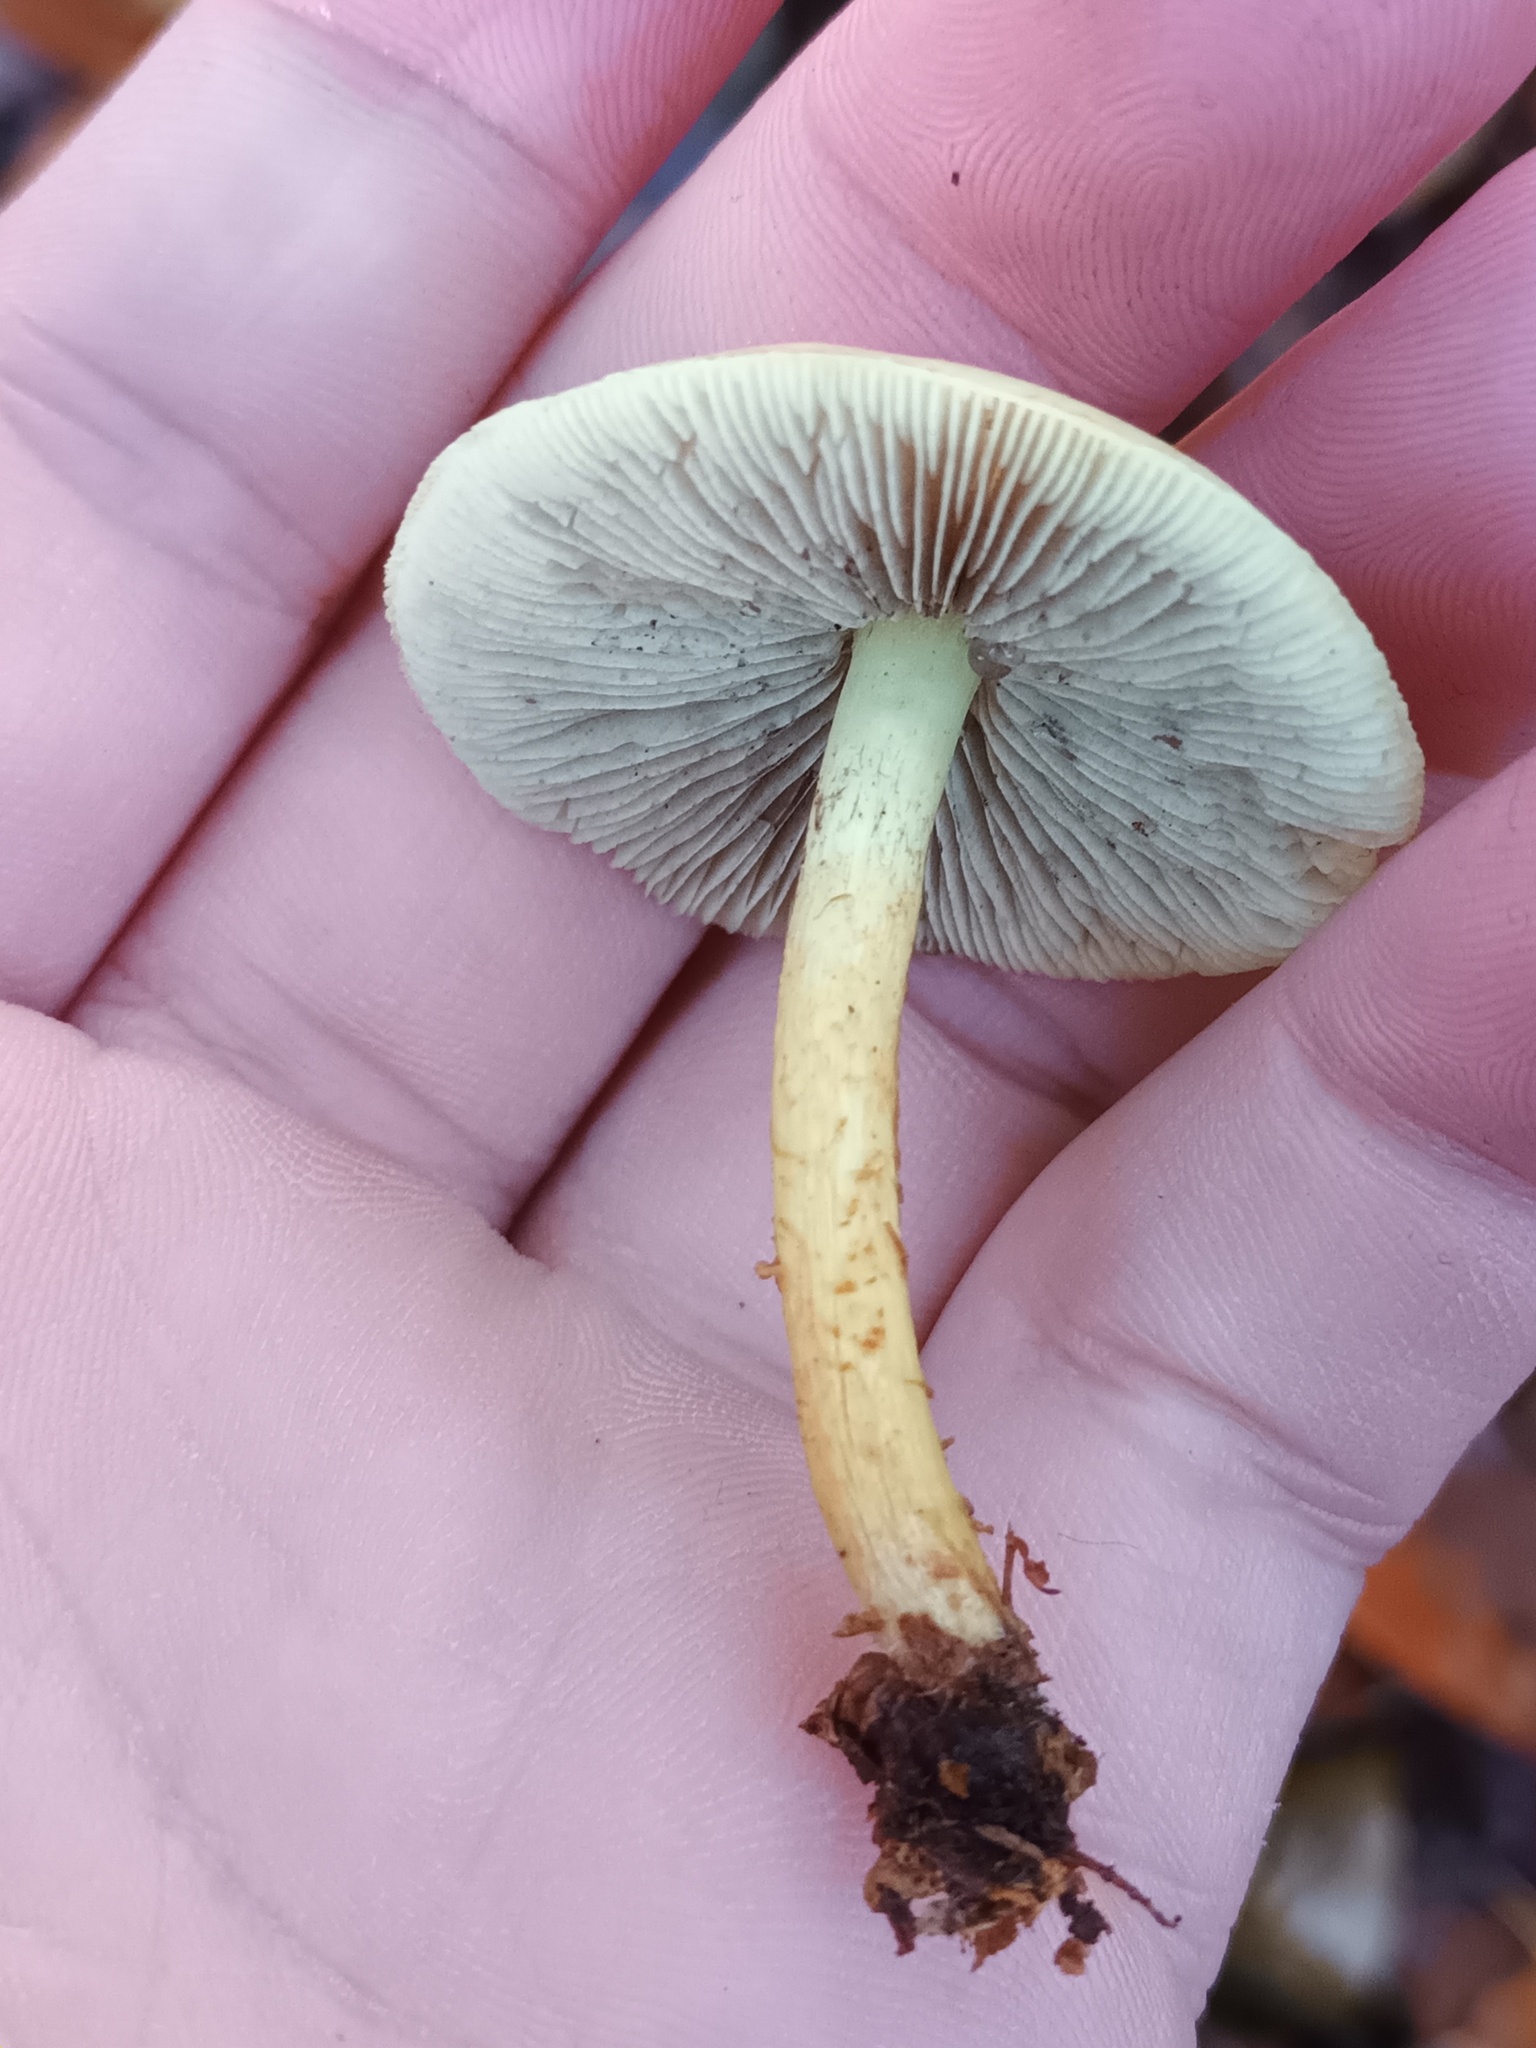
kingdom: Fungi
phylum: Basidiomycota
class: Agaricomycetes
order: Agaricales
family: Strophariaceae
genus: Hypholoma
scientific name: Hypholoma fasciculare
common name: Sulphur tuft
